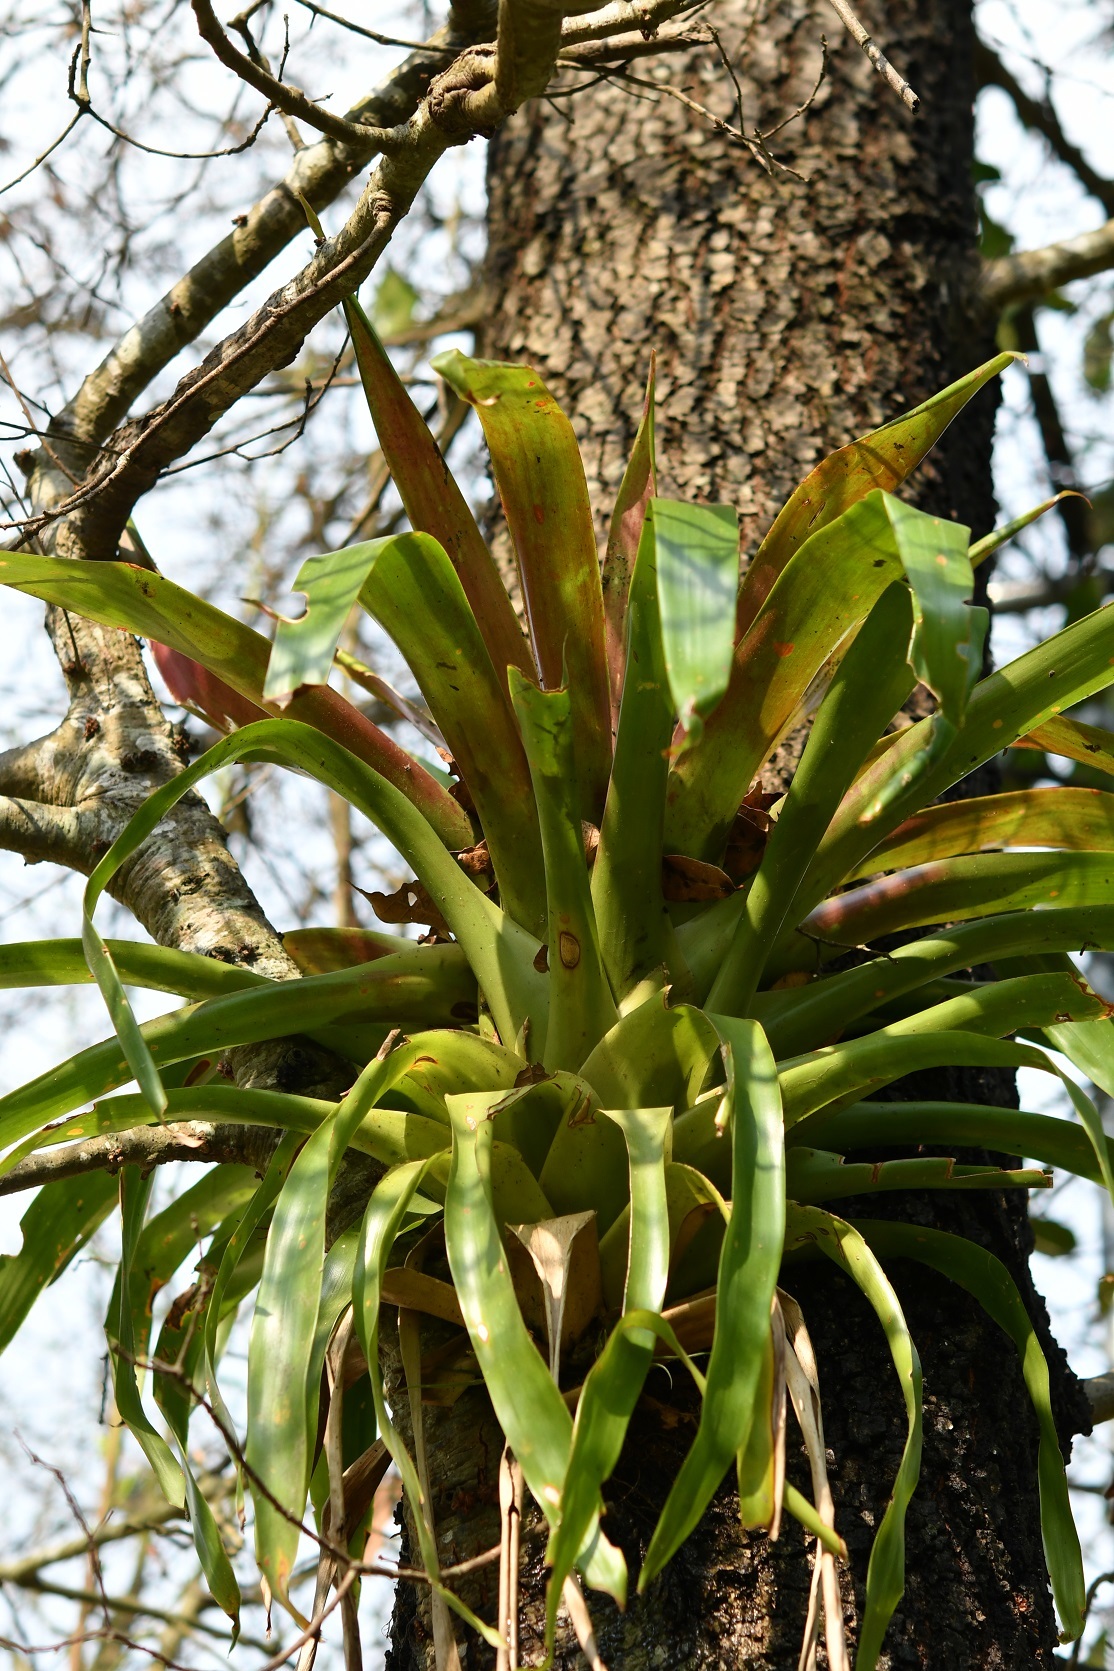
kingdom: Plantae
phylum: Tracheophyta
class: Liliopsida
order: Poales
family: Bromeliaceae
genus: Tillandsia
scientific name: Tillandsia guatemalensis
